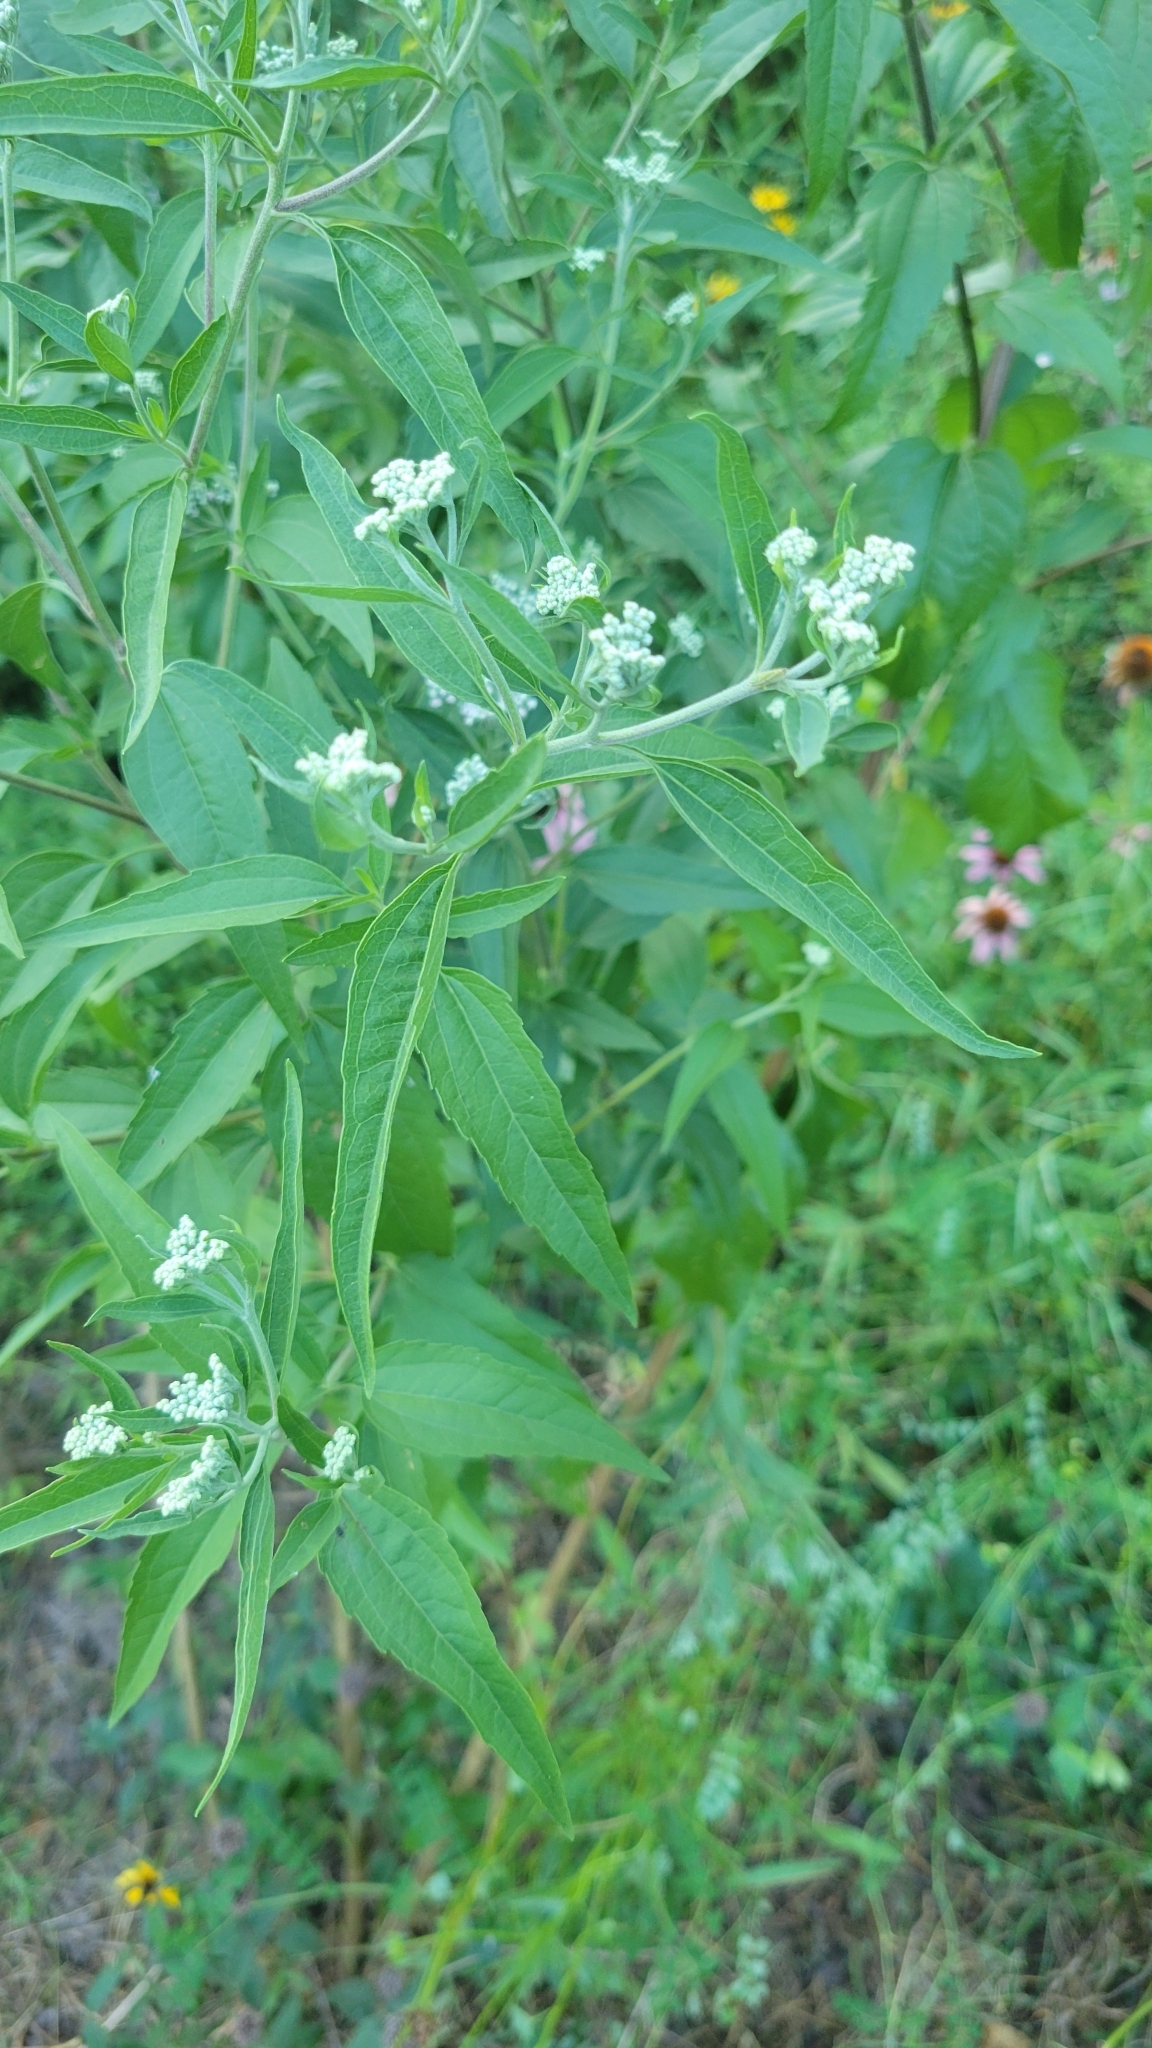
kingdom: Plantae
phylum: Tracheophyta
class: Magnoliopsida
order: Asterales
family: Asteraceae
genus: Eupatorium
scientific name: Eupatorium serotinum
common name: Late boneset
